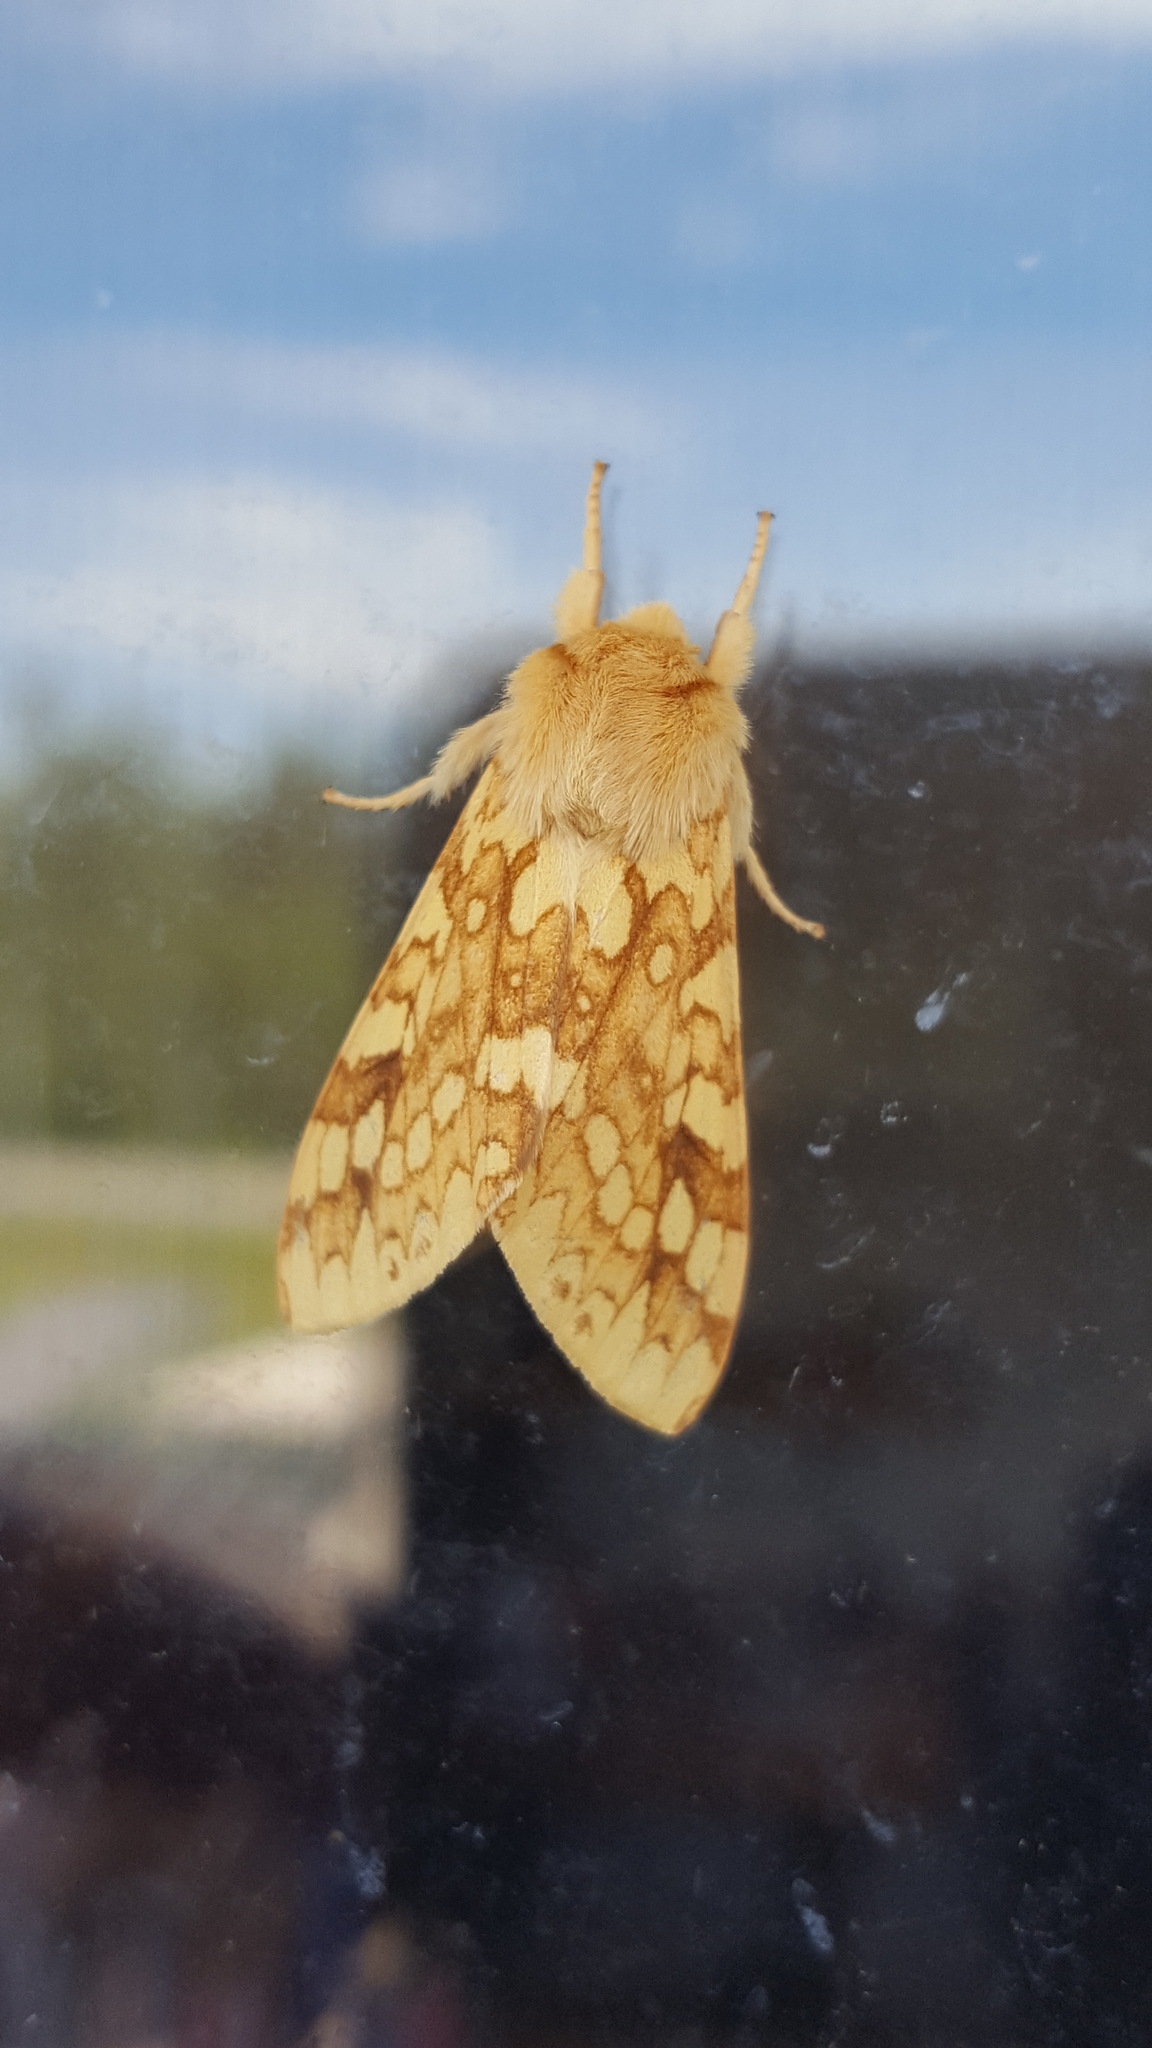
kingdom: Animalia
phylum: Arthropoda
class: Insecta
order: Lepidoptera
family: Erebidae
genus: Lophocampa
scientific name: Lophocampa maculata
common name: Spotted tussock moth
